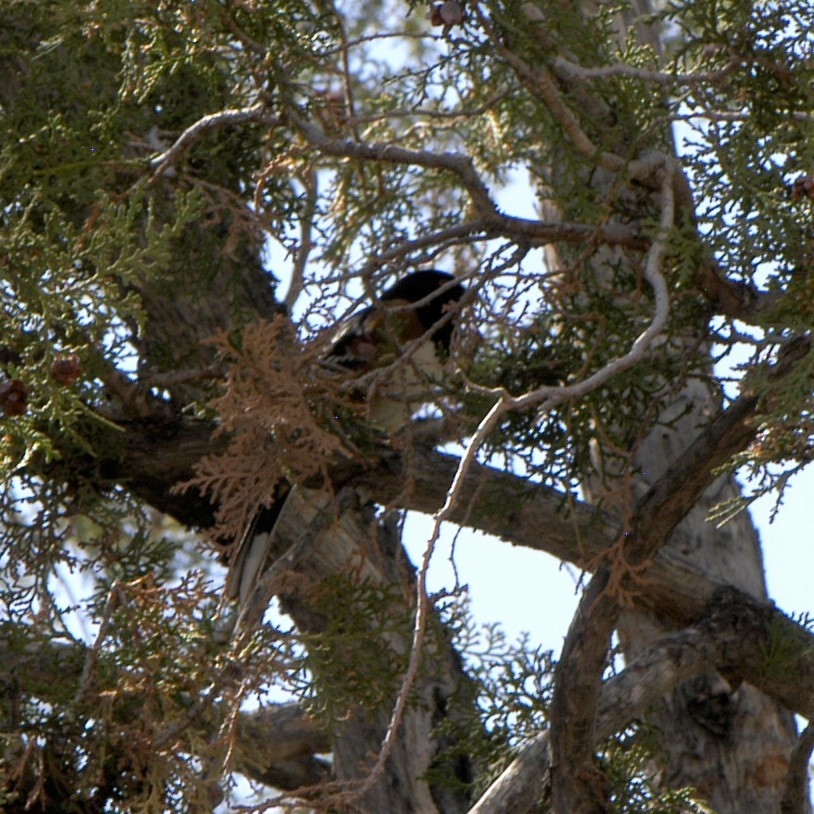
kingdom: Animalia
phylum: Chordata
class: Aves
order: Passeriformes
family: Passerellidae
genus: Pipilo
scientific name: Pipilo maculatus
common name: Spotted towhee
